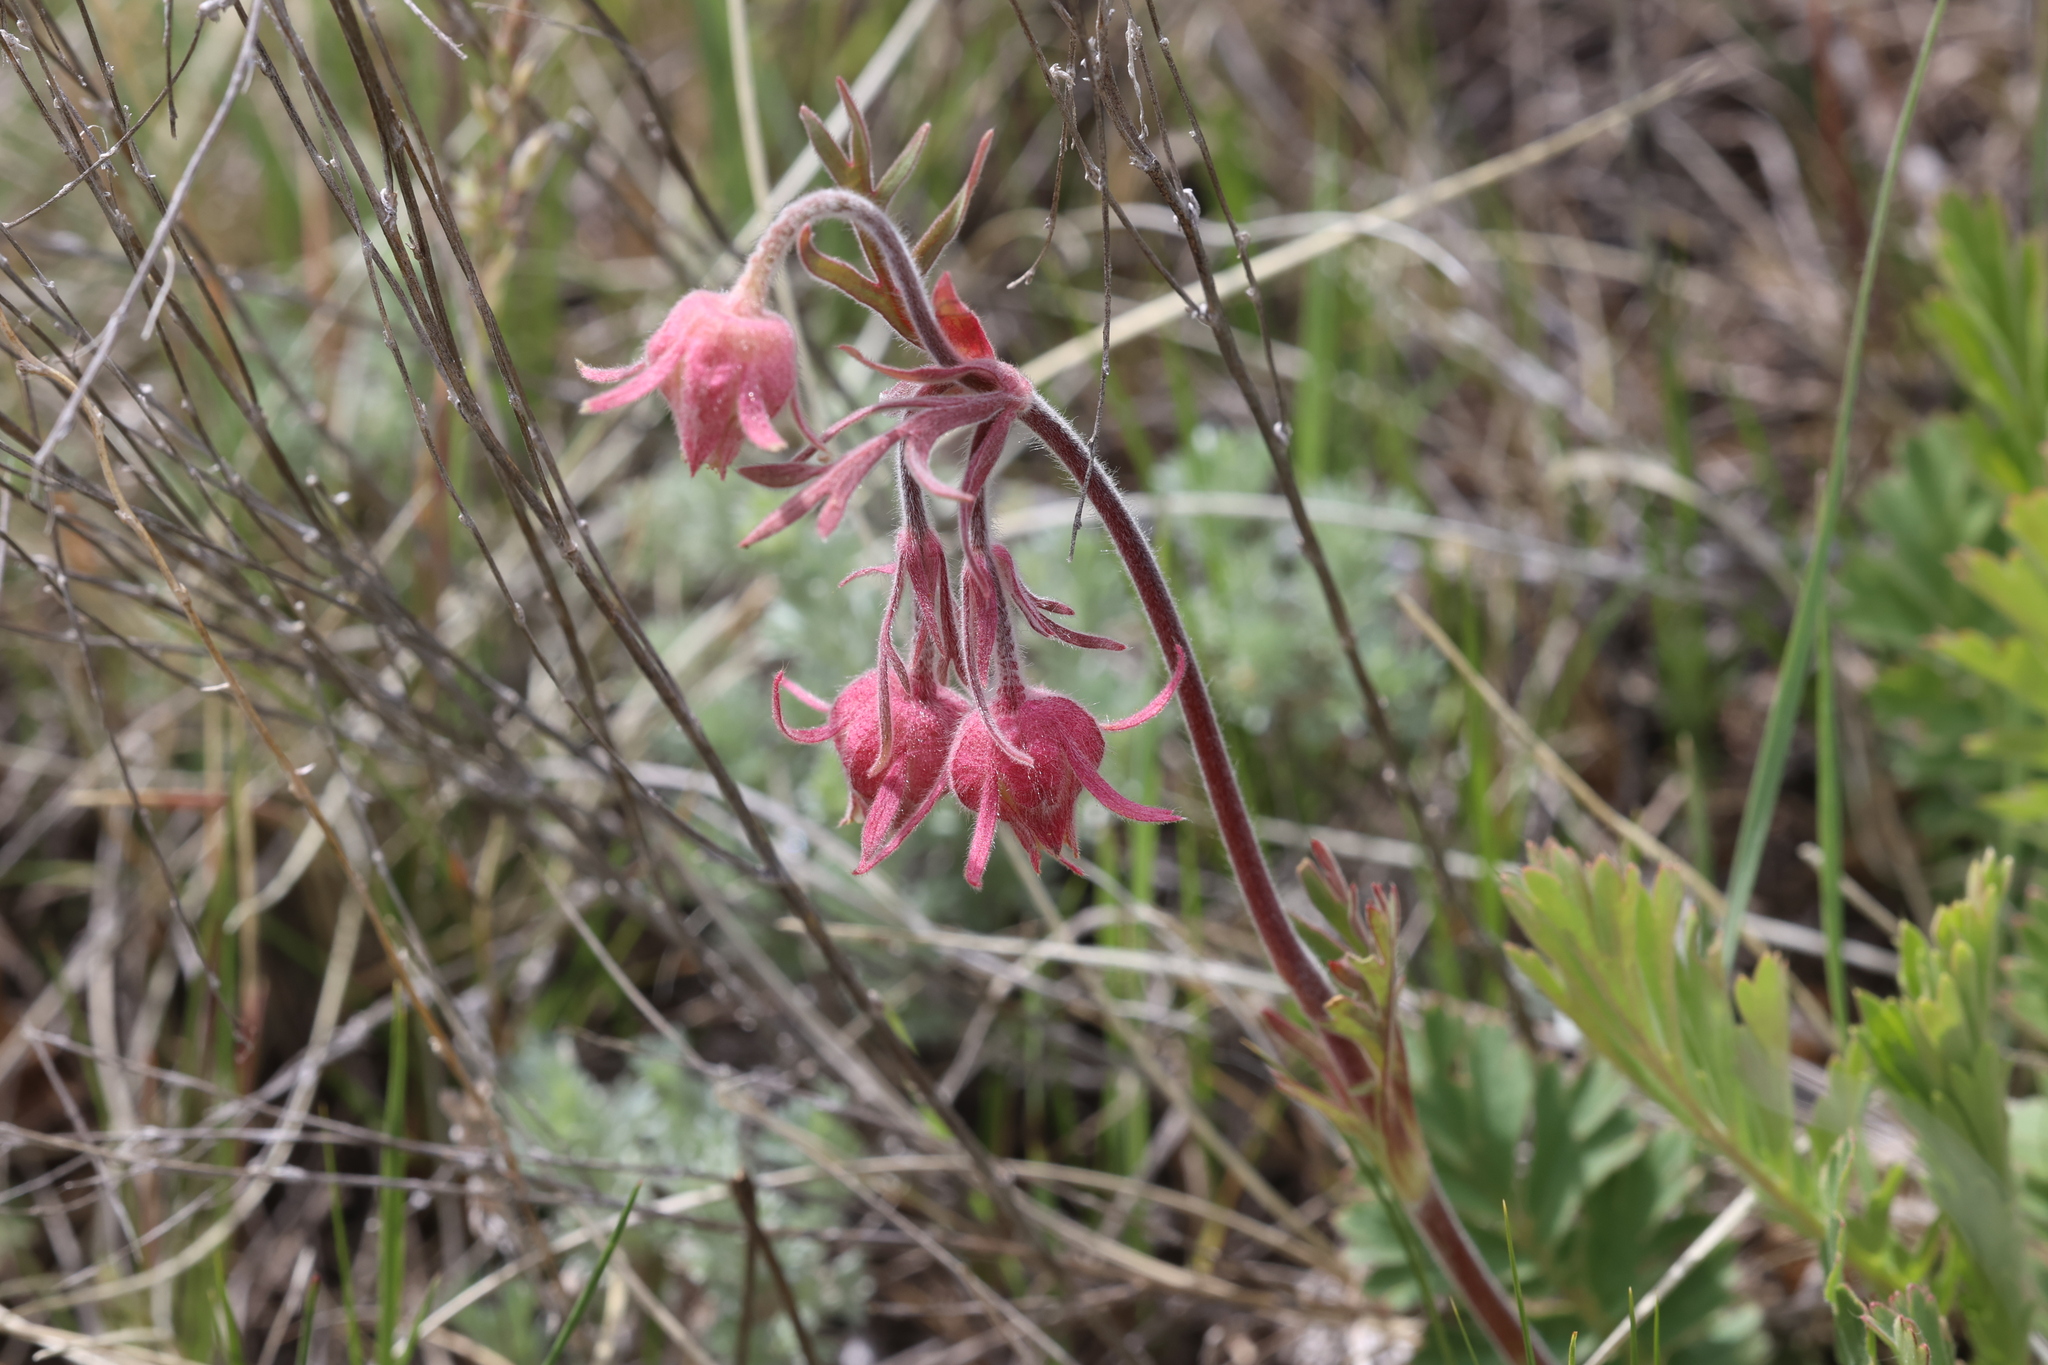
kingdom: Plantae
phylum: Tracheophyta
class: Magnoliopsida
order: Rosales
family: Rosaceae
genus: Geum
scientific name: Geum triflorum
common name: Old man's whiskers
